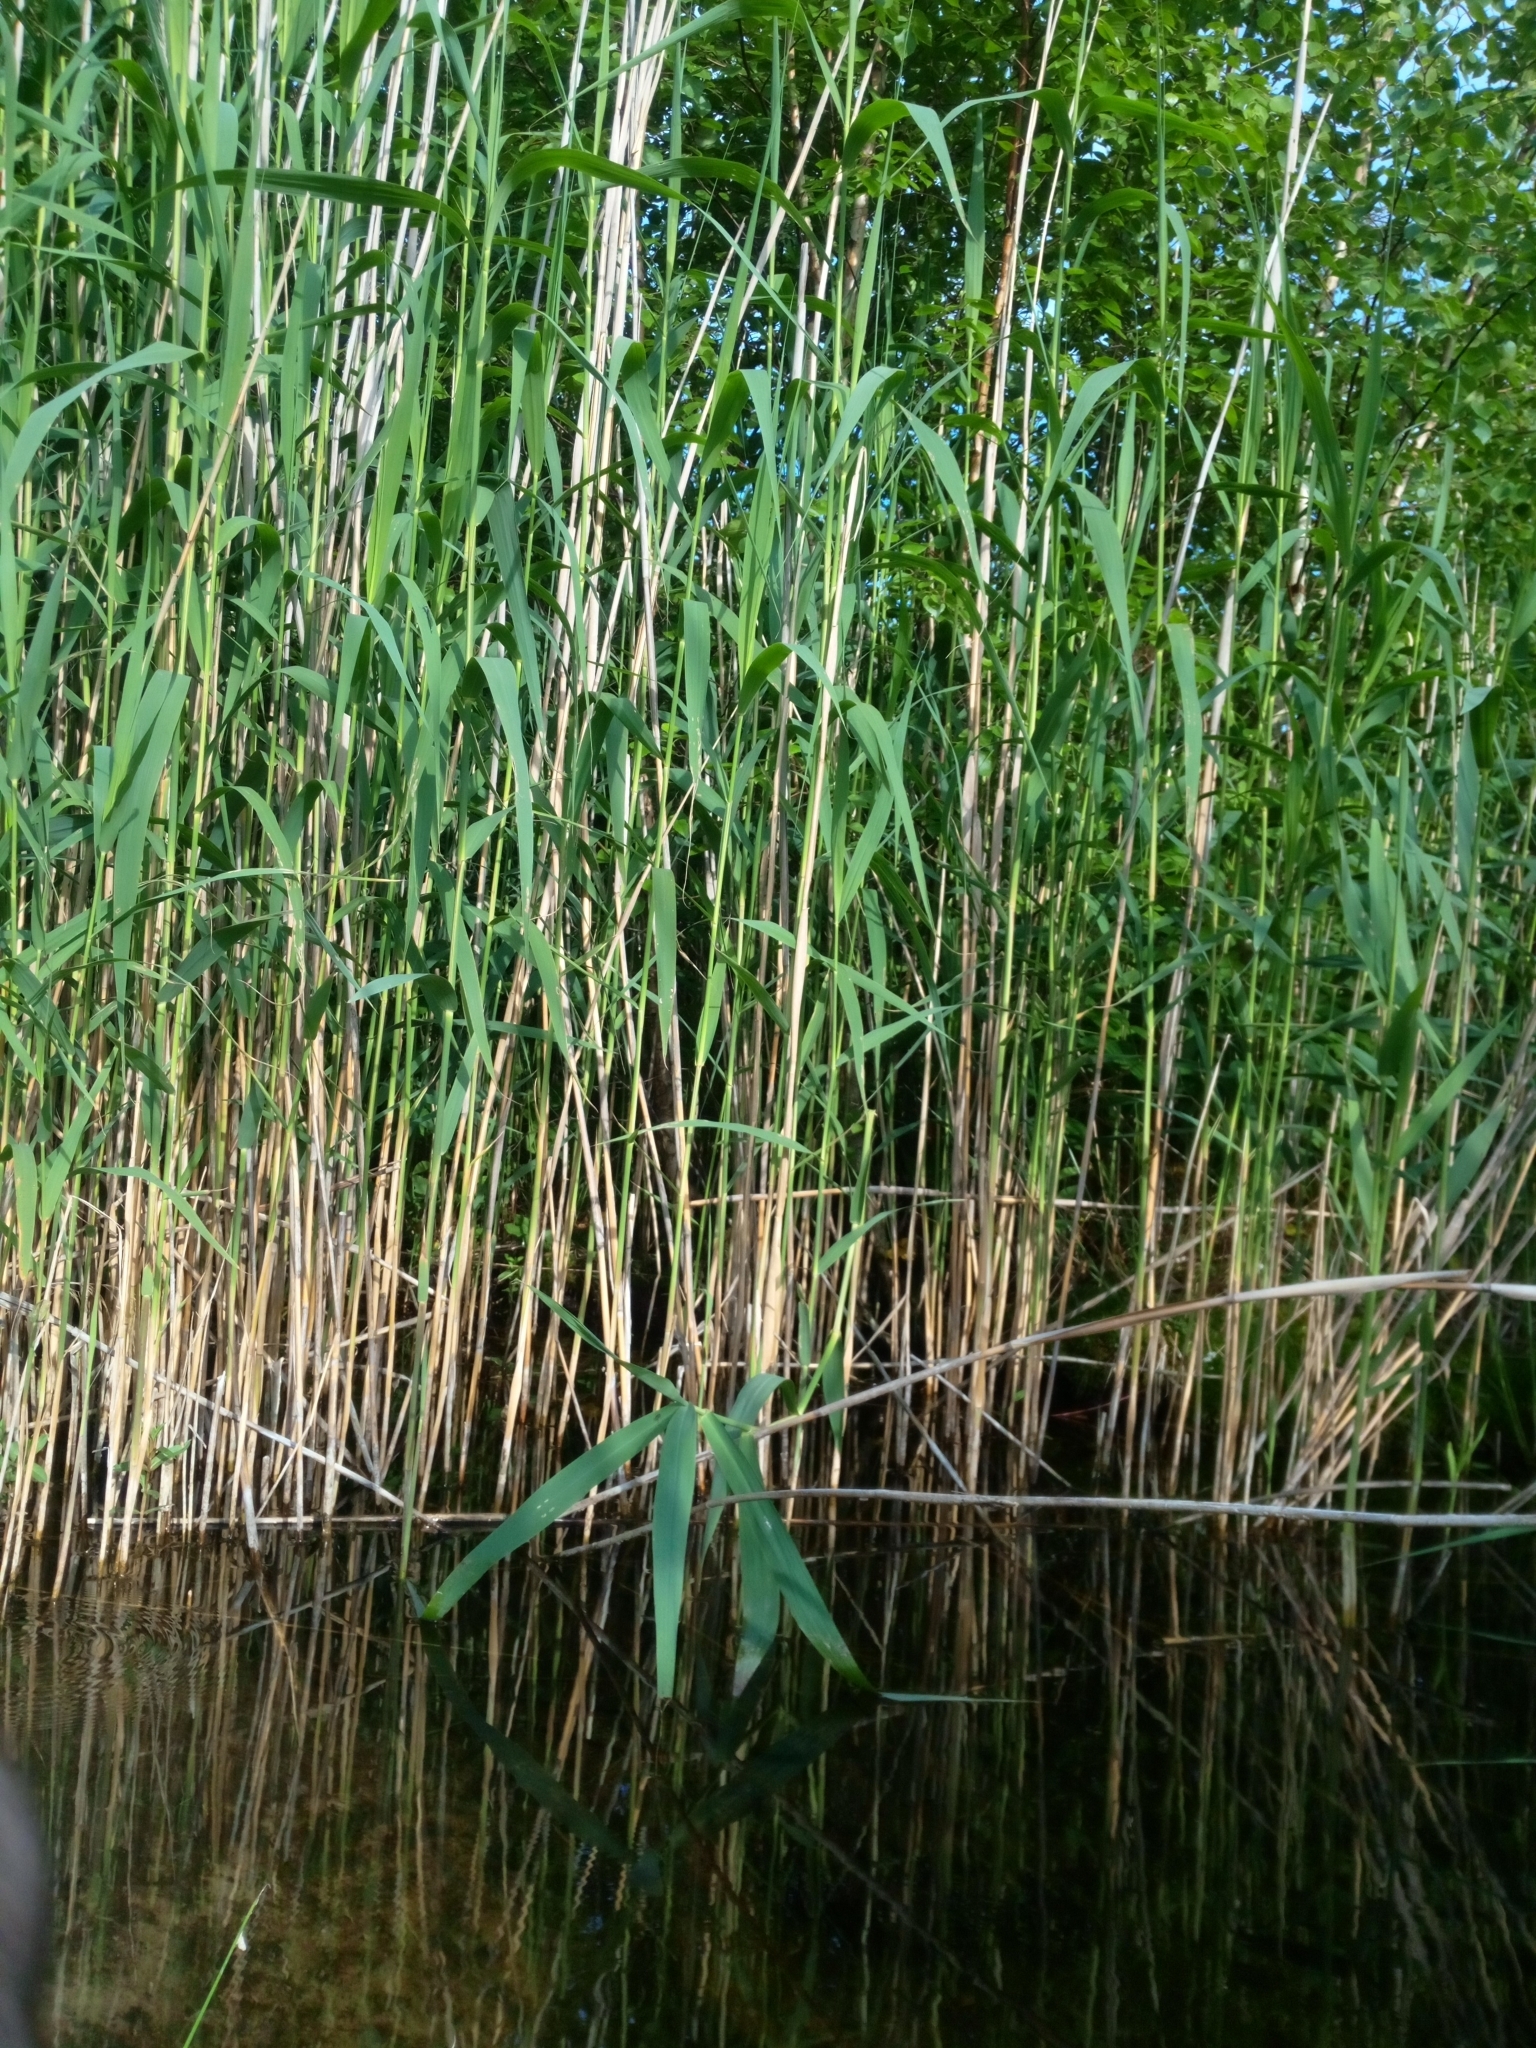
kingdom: Plantae
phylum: Tracheophyta
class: Liliopsida
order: Poales
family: Poaceae
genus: Phragmites
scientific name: Phragmites australis
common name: Common reed
